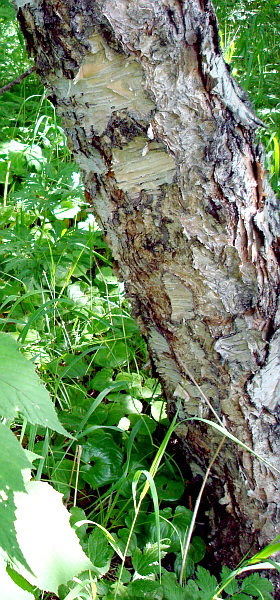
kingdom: Plantae
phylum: Tracheophyta
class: Magnoliopsida
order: Fagales
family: Betulaceae
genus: Betula
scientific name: Betula ermanii
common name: Erman's birch
